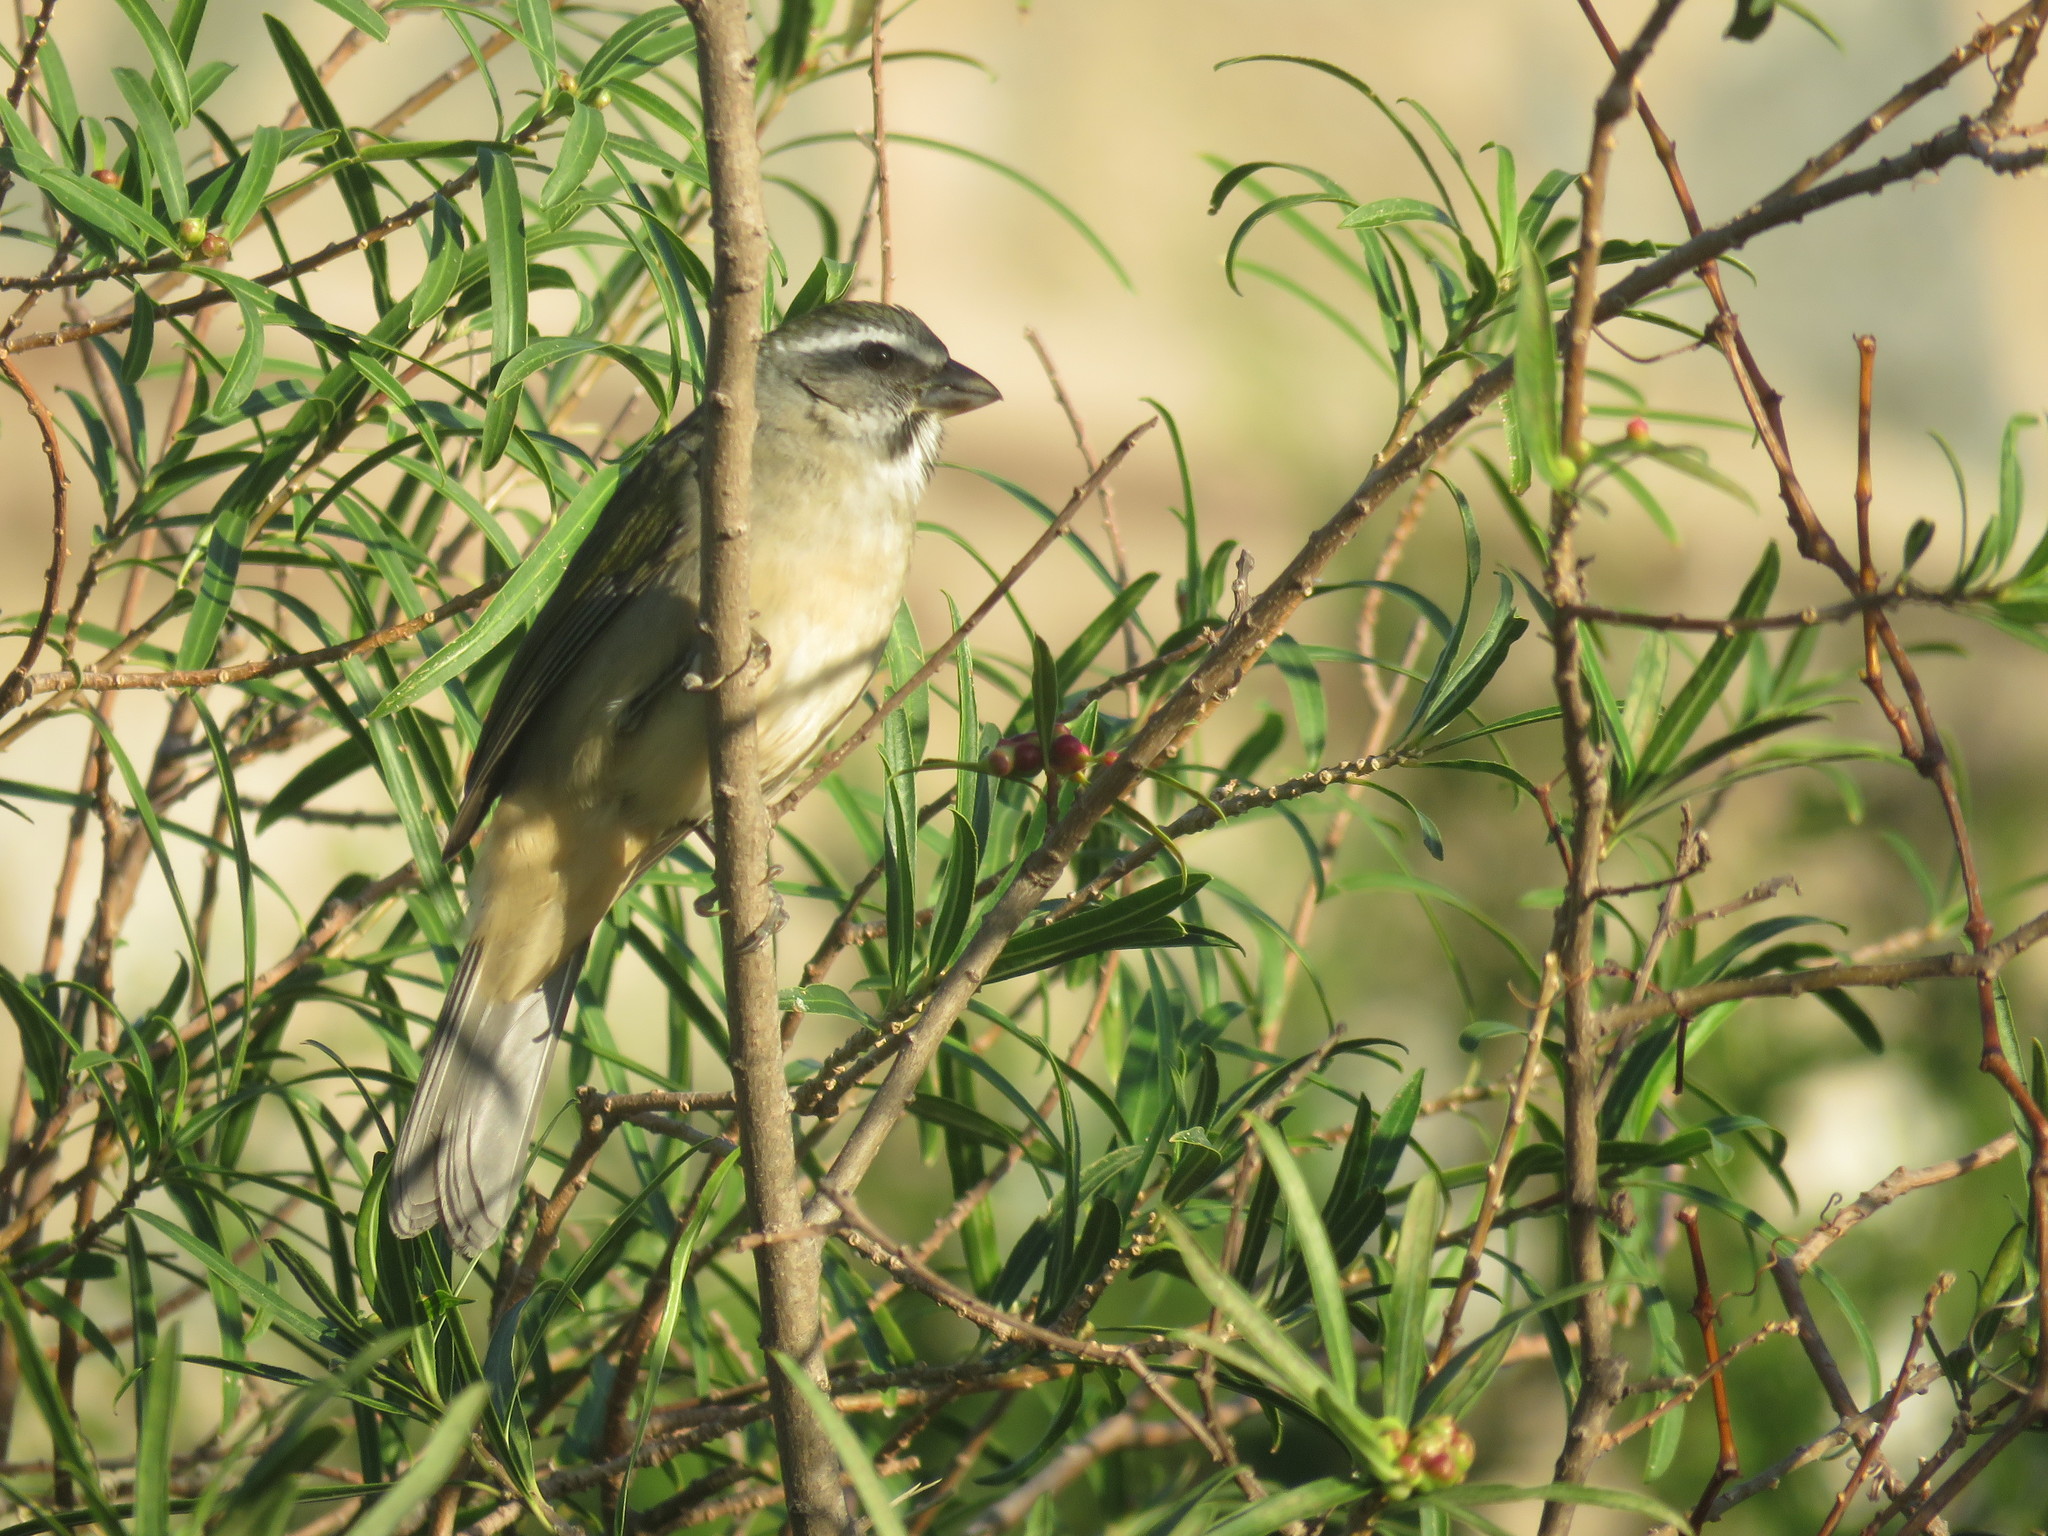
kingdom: Animalia
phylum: Chordata
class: Aves
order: Passeriformes
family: Thraupidae
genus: Saltator
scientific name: Saltator similis
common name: Green-winged saltator
